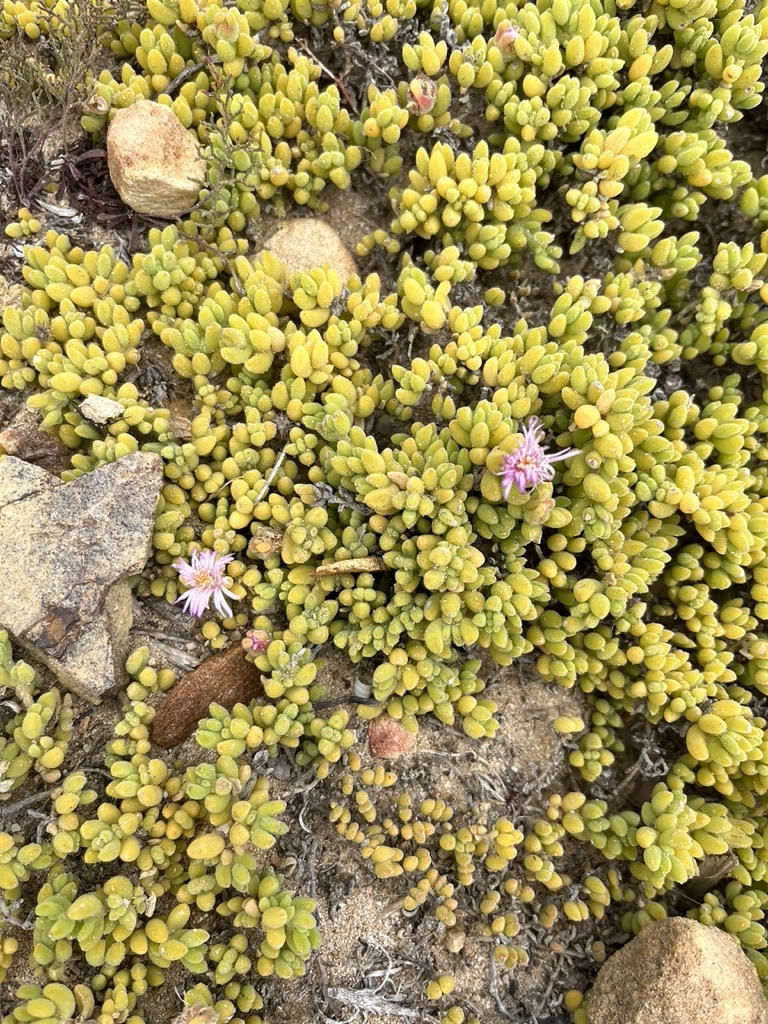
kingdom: Plantae
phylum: Tracheophyta
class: Magnoliopsida
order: Caryophyllales
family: Aizoaceae
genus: Drosanthemum
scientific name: Drosanthemum candens
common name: Rodondo-creeper
